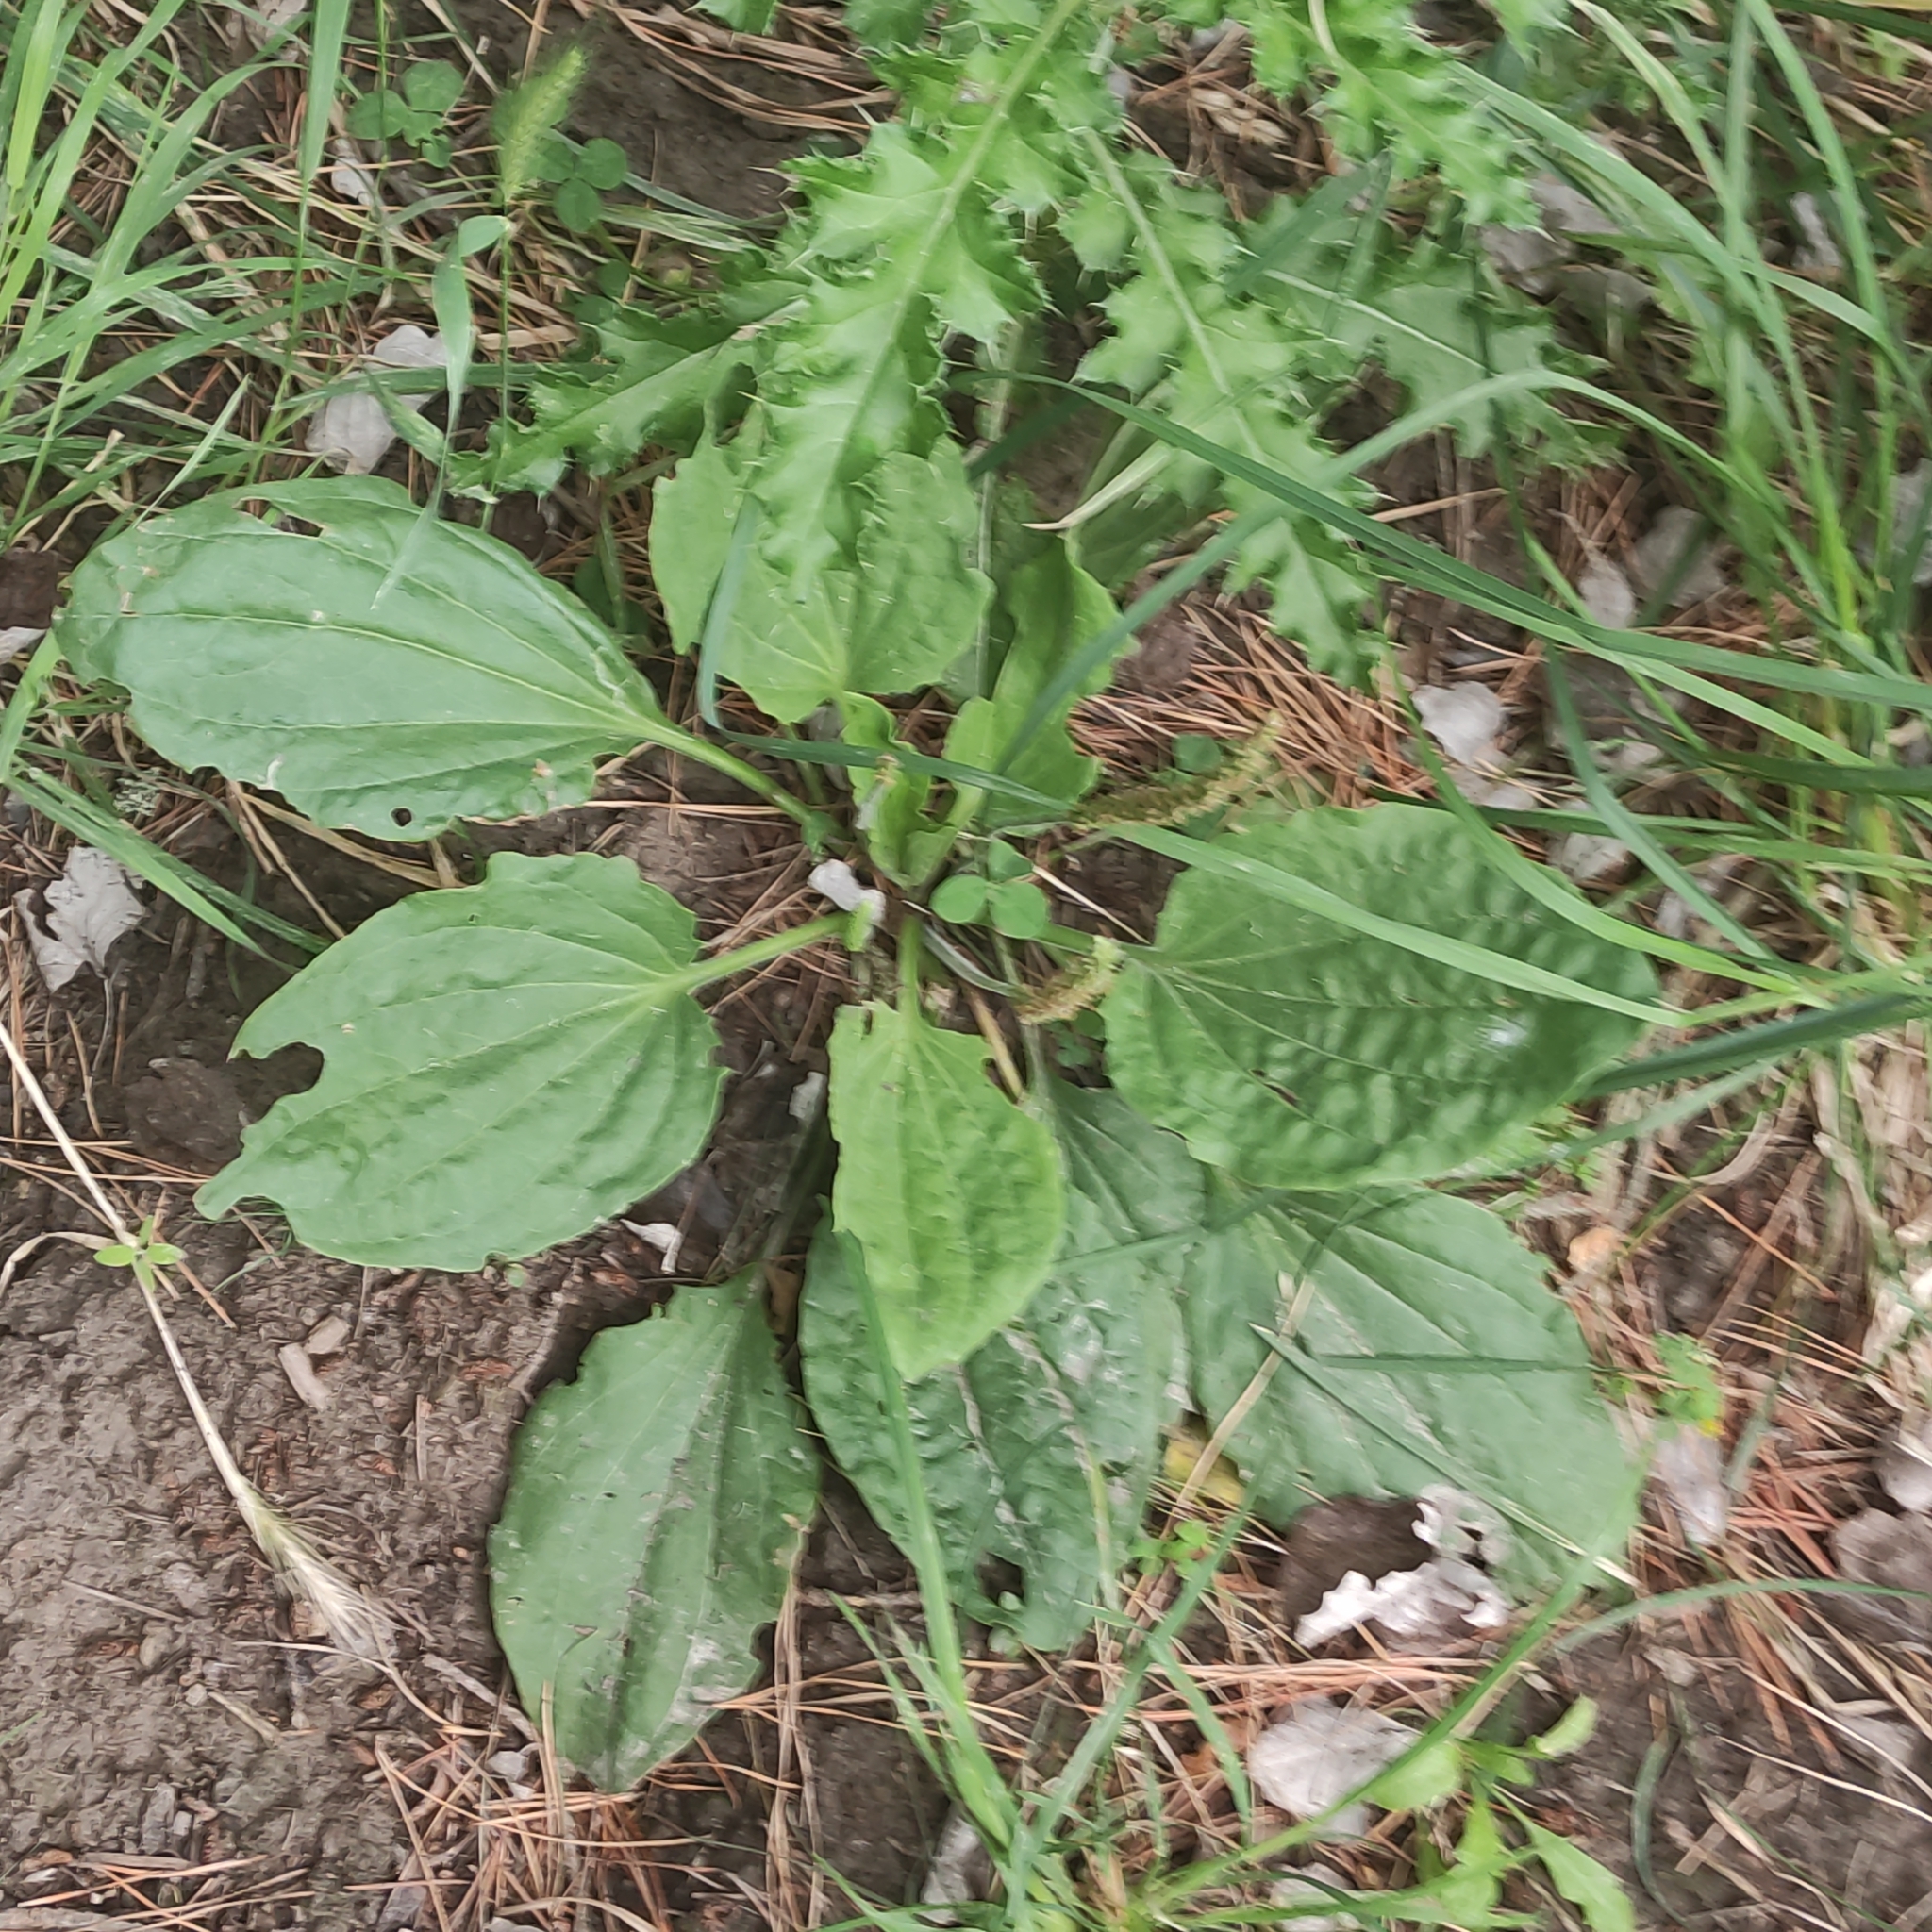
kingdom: Plantae
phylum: Tracheophyta
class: Magnoliopsida
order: Lamiales
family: Plantaginaceae
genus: Plantago
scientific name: Plantago major
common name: Common plantain
